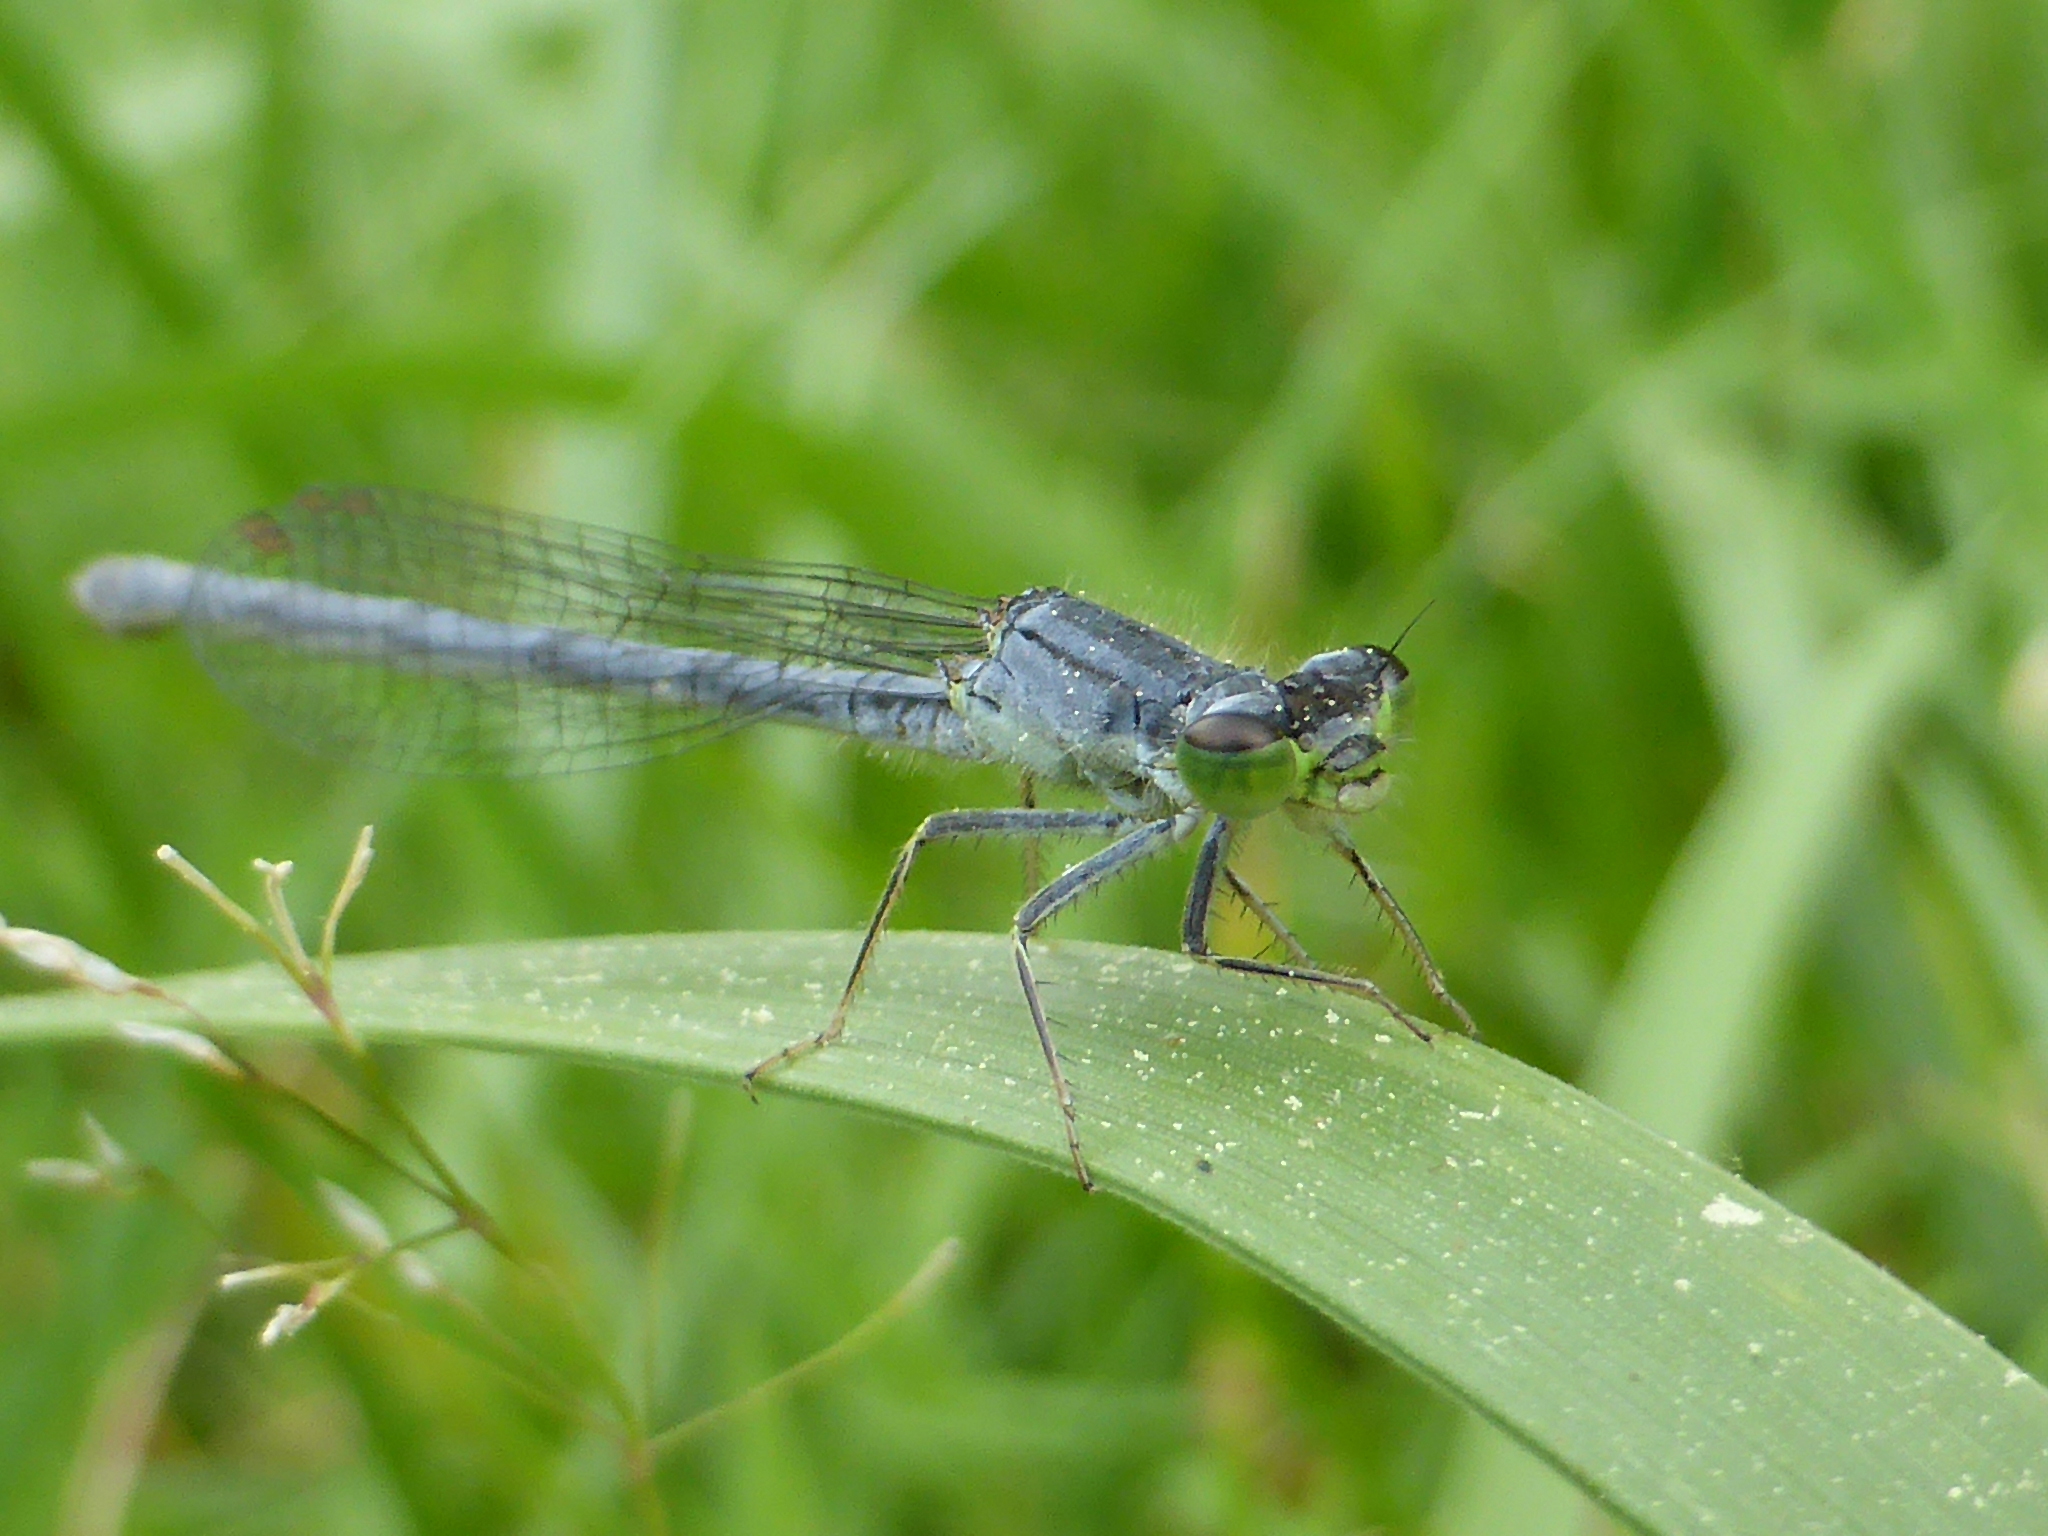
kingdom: Animalia
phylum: Arthropoda
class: Insecta
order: Odonata
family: Coenagrionidae
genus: Ischnura
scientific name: Ischnura verticalis
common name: Eastern forktail
